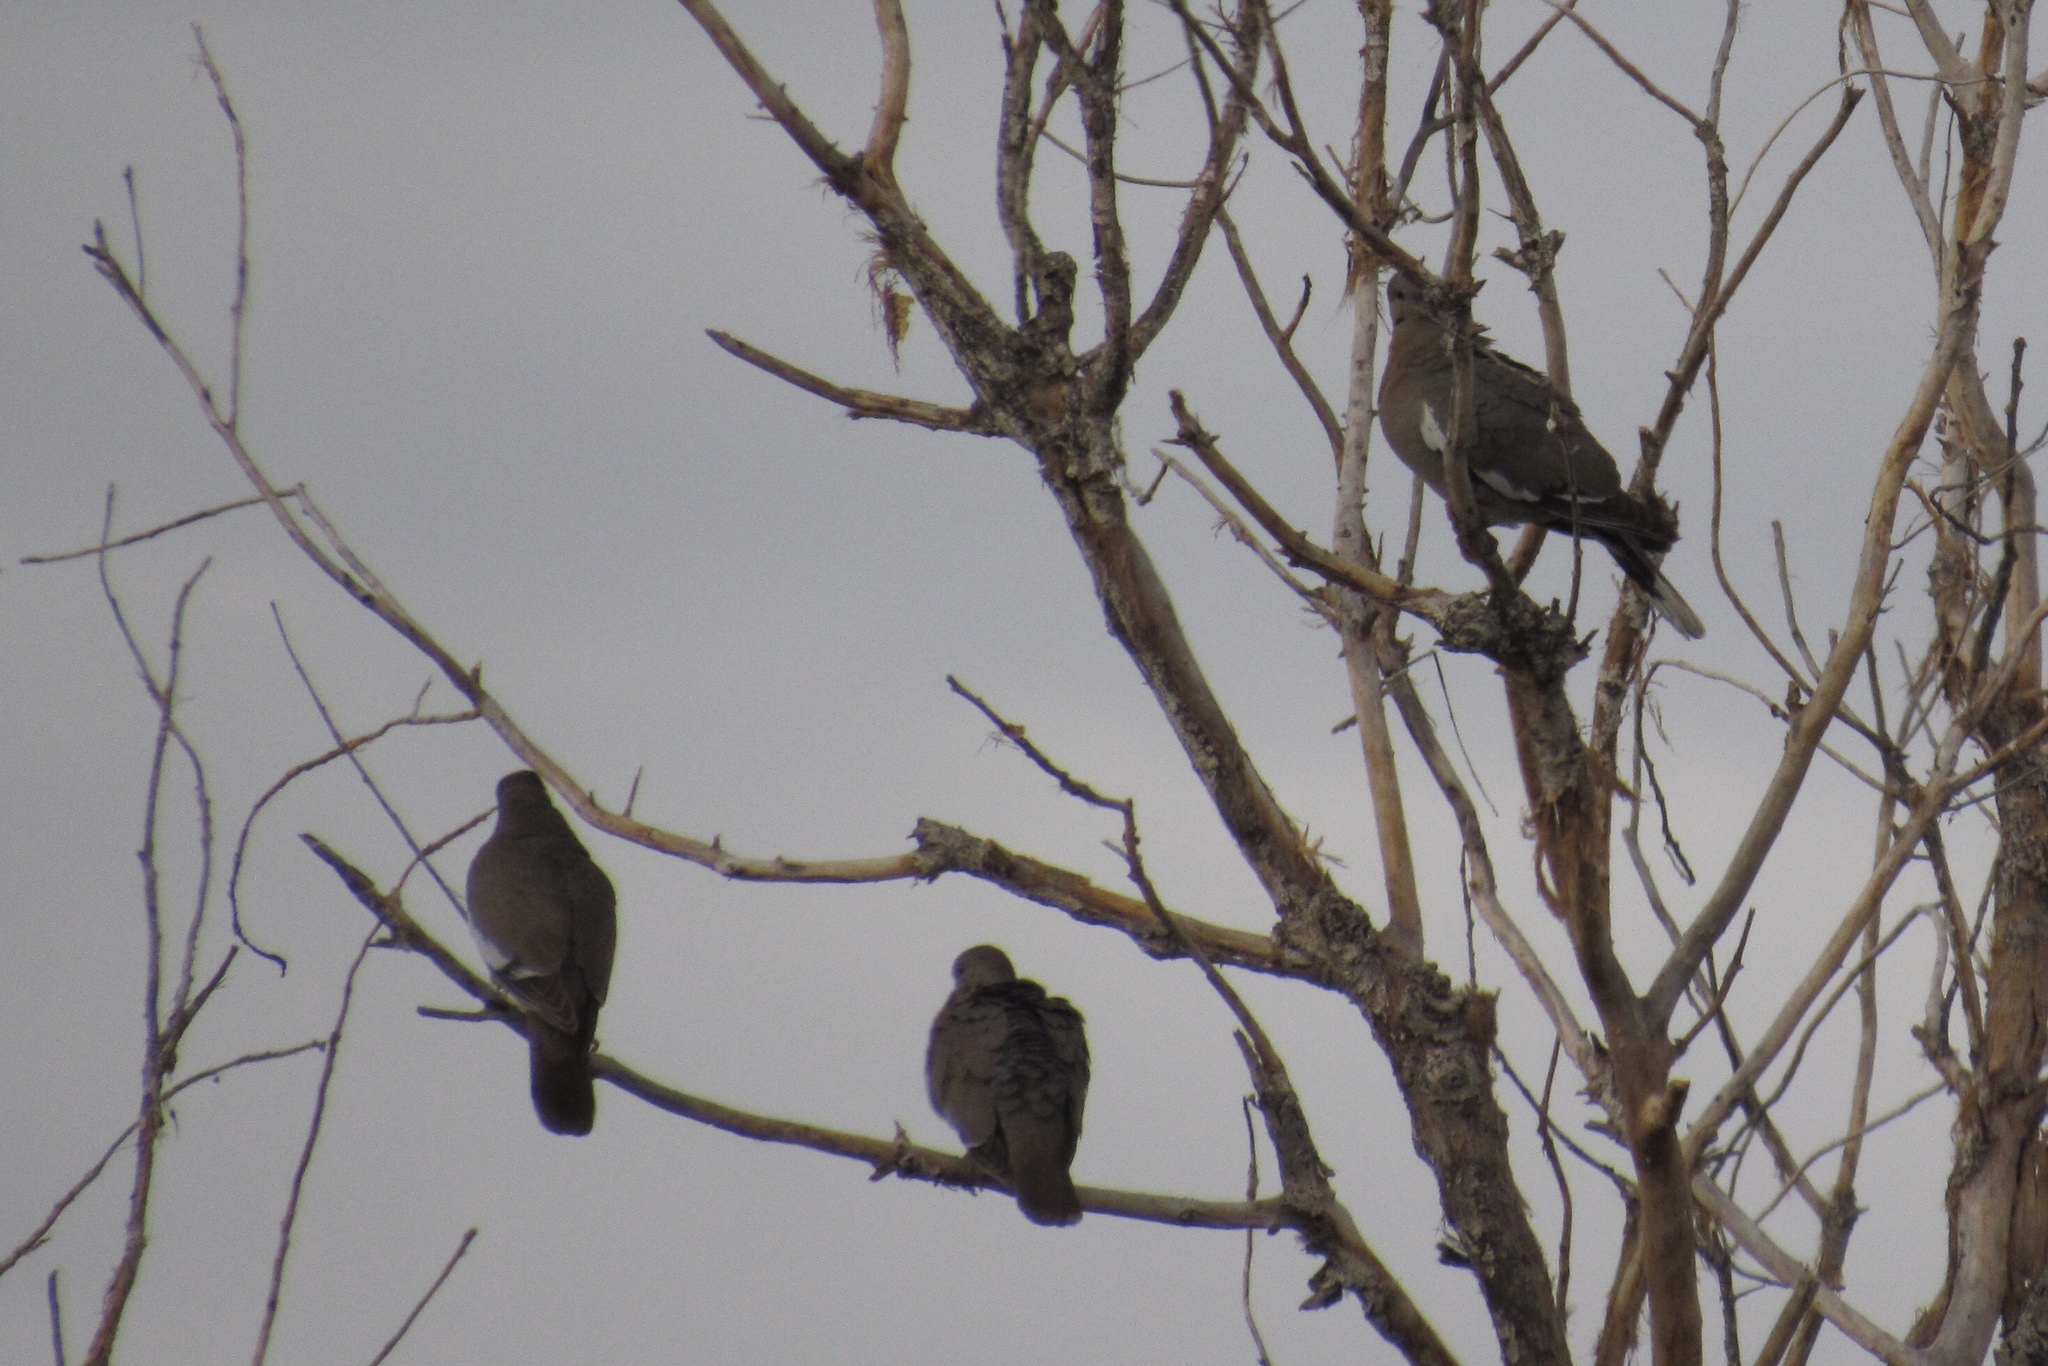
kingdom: Animalia
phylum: Chordata
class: Aves
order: Columbiformes
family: Columbidae
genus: Zenaida
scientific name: Zenaida asiatica
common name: White-winged dove
